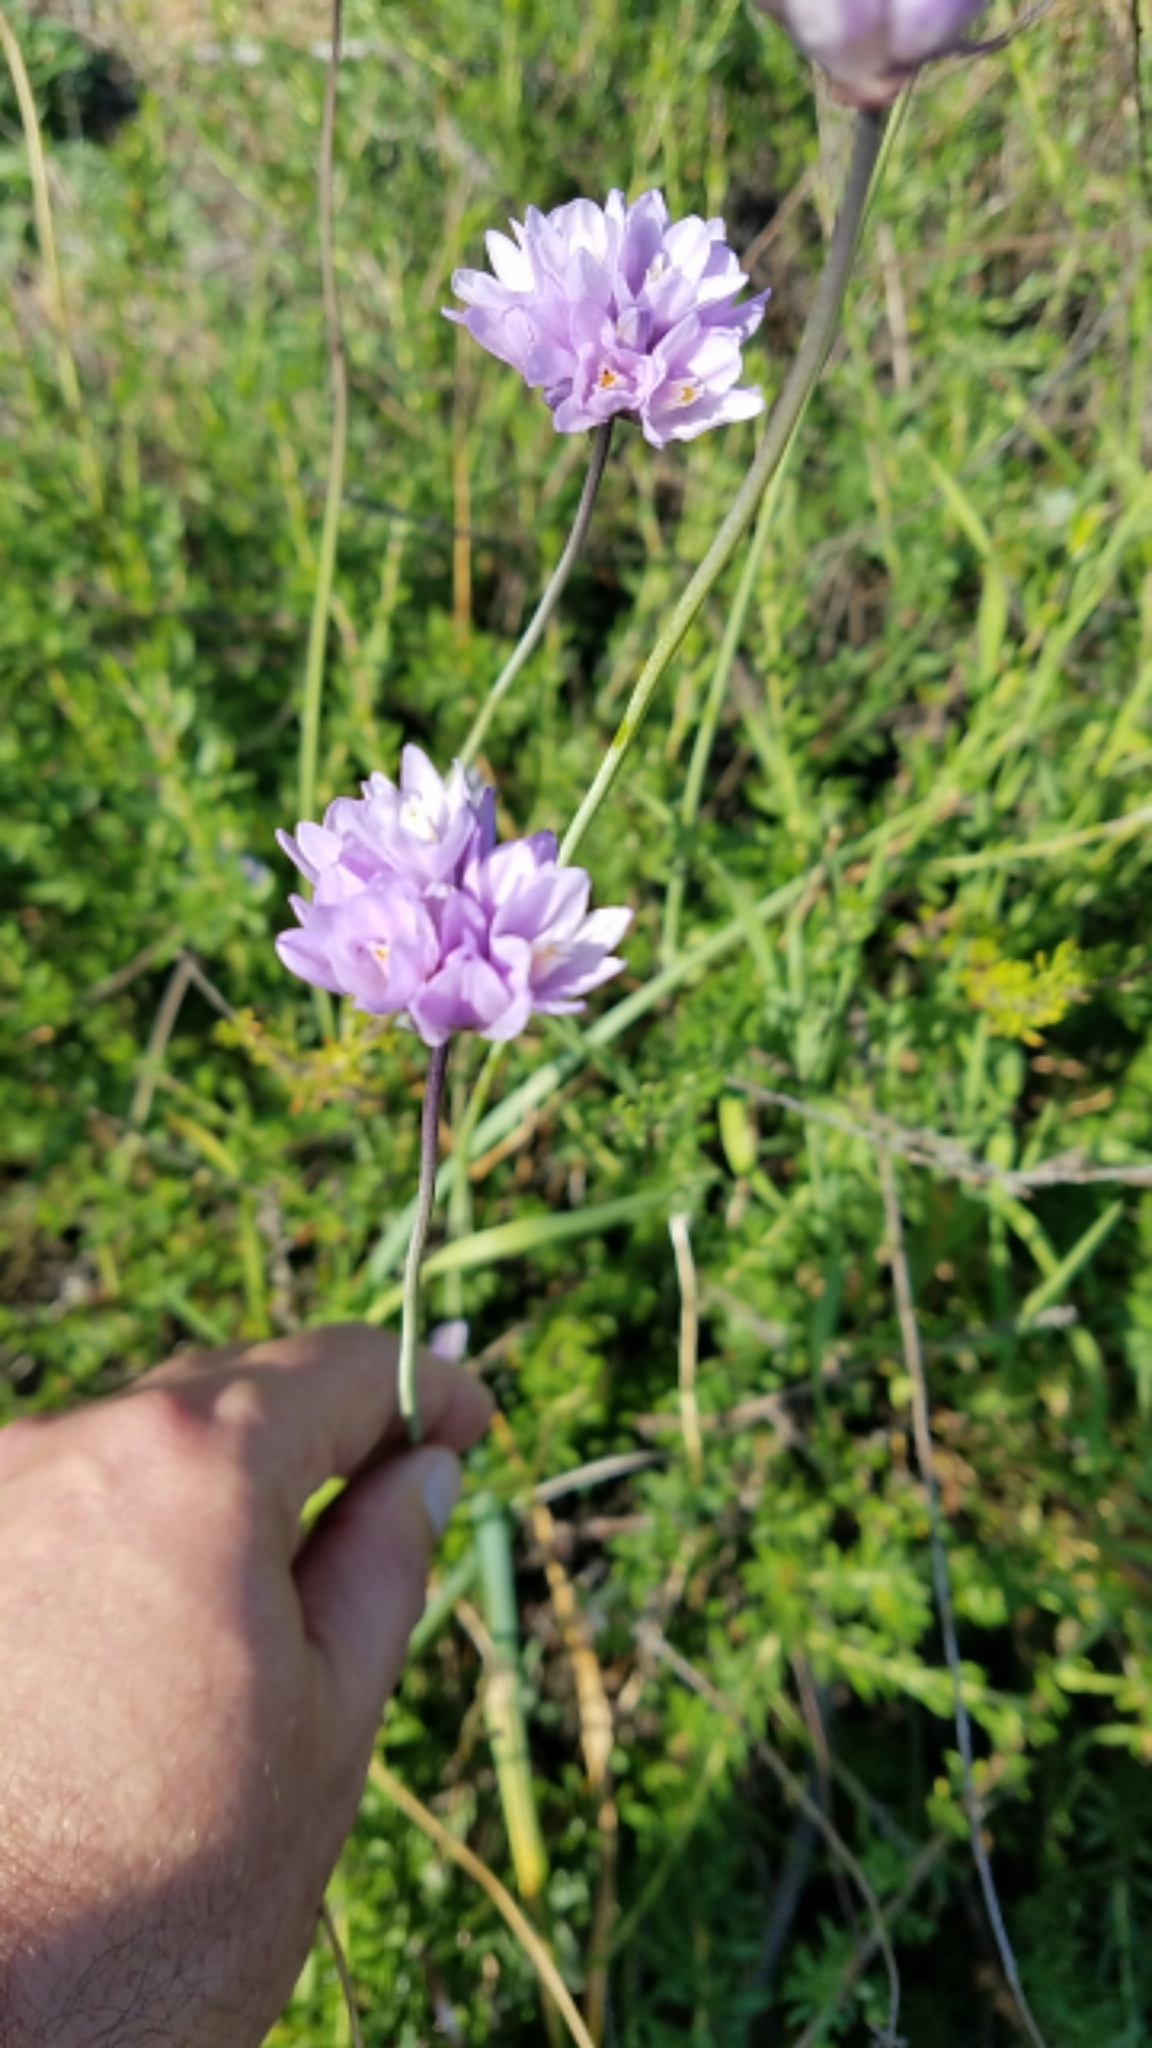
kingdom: Plantae
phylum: Tracheophyta
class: Liliopsida
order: Asparagales
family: Asparagaceae
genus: Dipterostemon
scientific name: Dipterostemon capitatus
